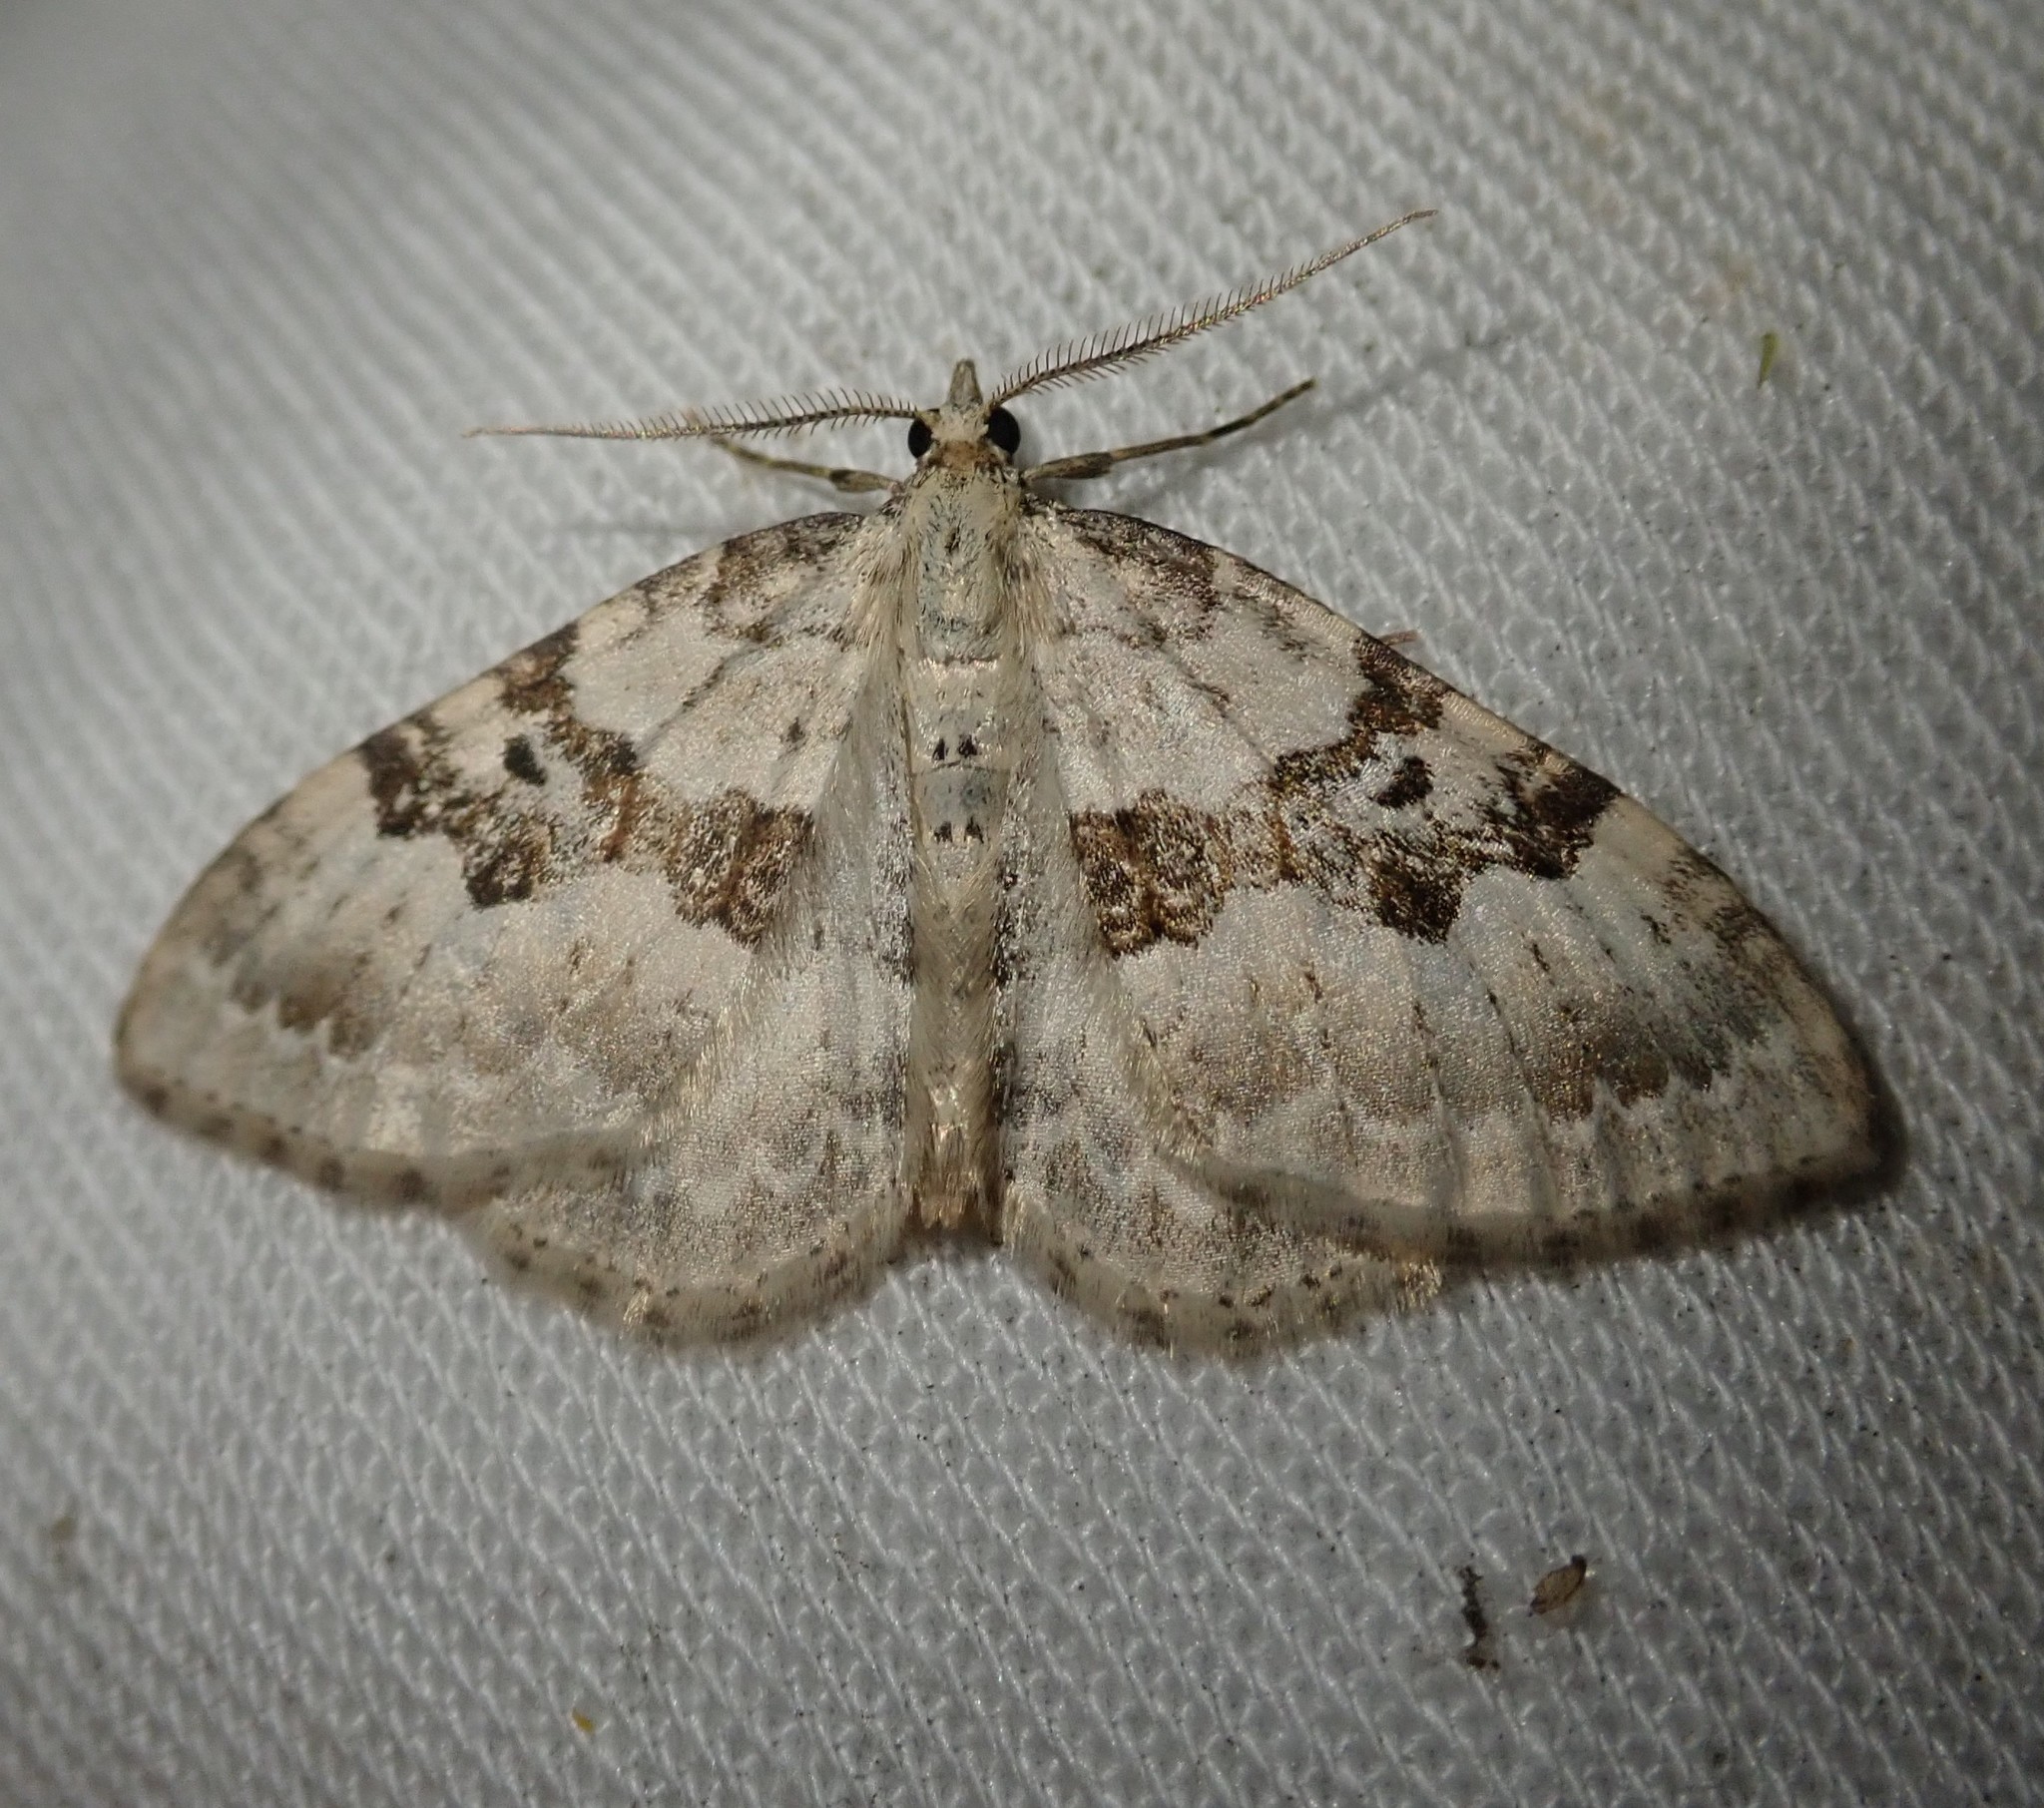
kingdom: Animalia
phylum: Arthropoda
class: Insecta
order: Lepidoptera
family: Geometridae
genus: Xanthorhoe
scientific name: Xanthorhoe montanata
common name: Silver-ground carpet
